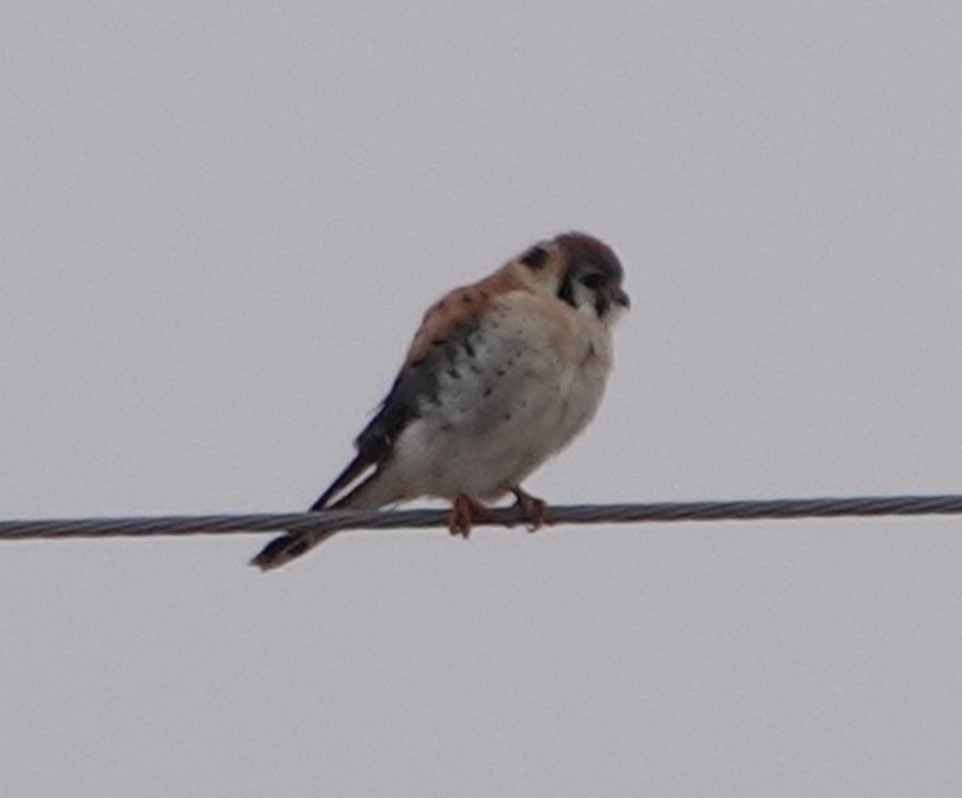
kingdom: Animalia
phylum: Chordata
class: Aves
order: Falconiformes
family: Falconidae
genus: Falco
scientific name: Falco sparverius
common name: American kestrel
